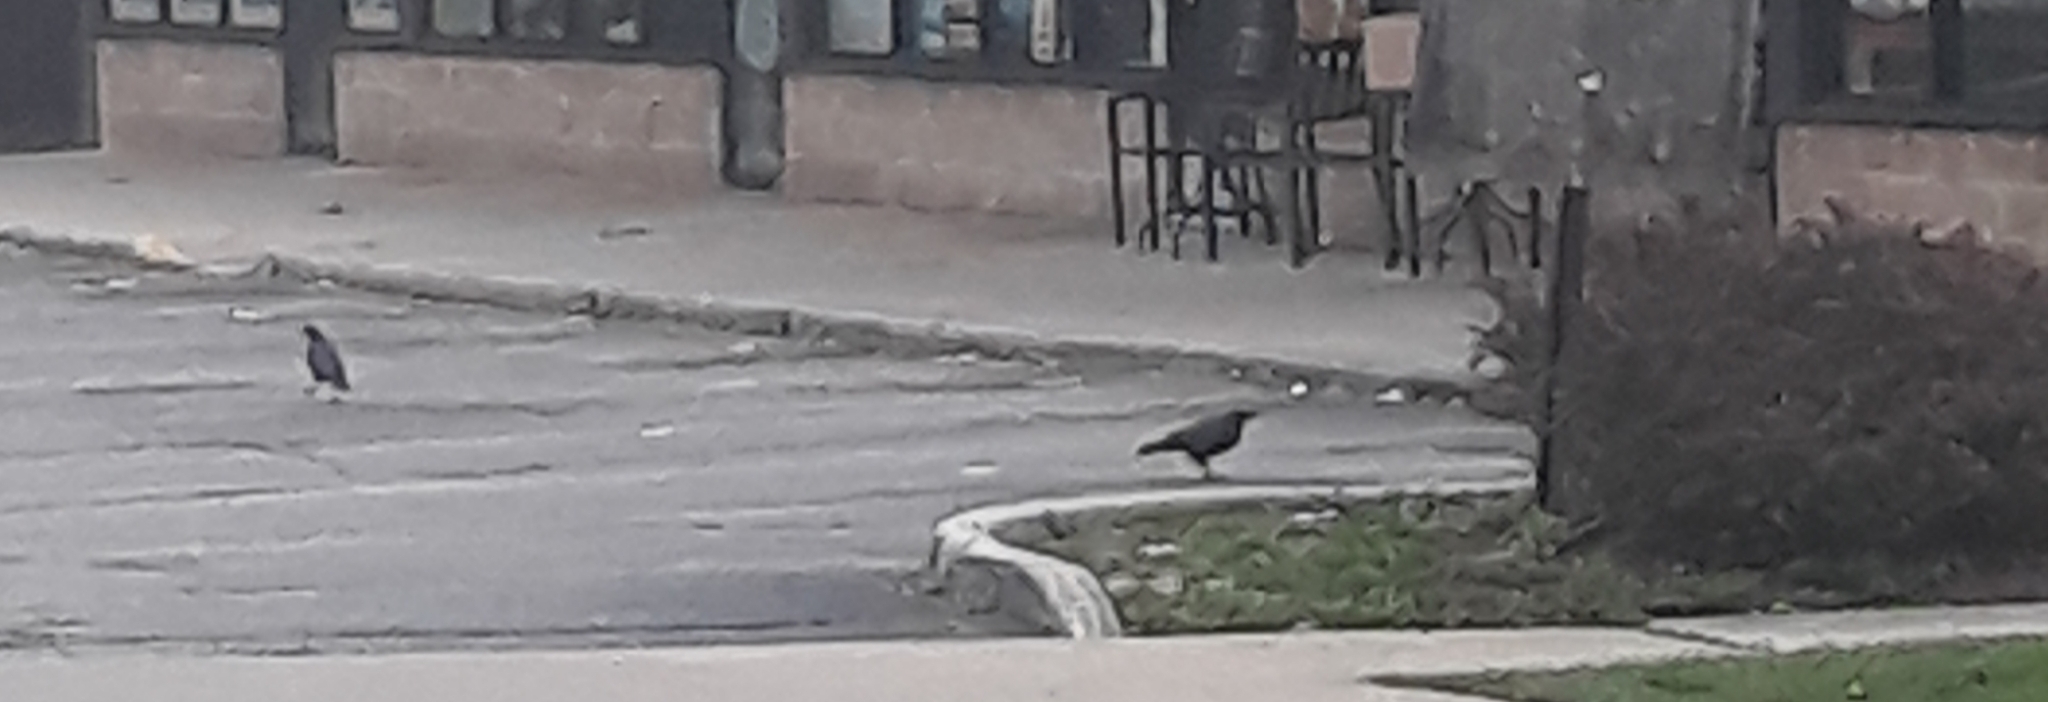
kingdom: Animalia
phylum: Chordata
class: Aves
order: Passeriformes
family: Corvidae
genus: Corvus
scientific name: Corvus brachyrhynchos
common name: American crow
